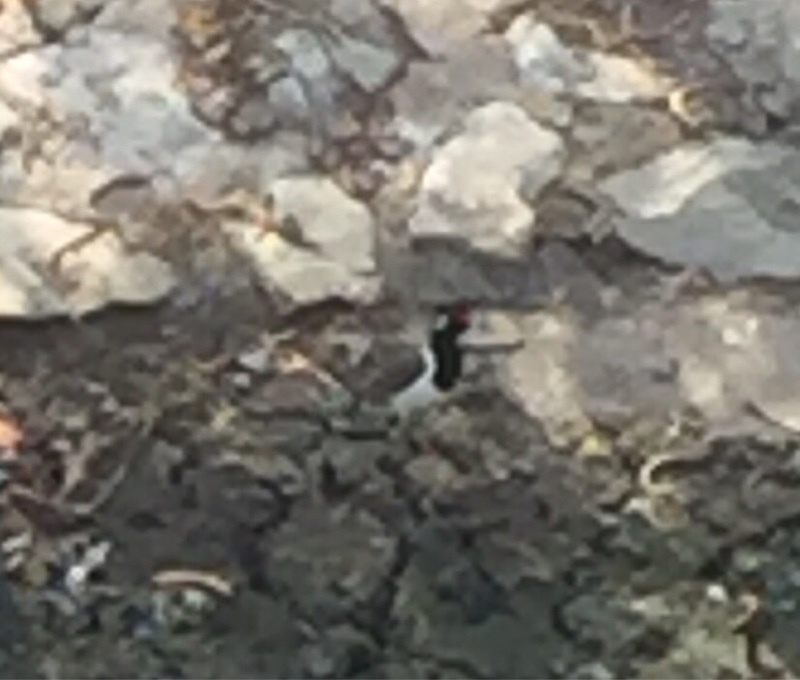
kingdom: Animalia
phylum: Chordata
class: Aves
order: Charadriiformes
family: Charadriidae
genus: Vanellus
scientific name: Vanellus indicus
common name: Red-wattled lapwing
